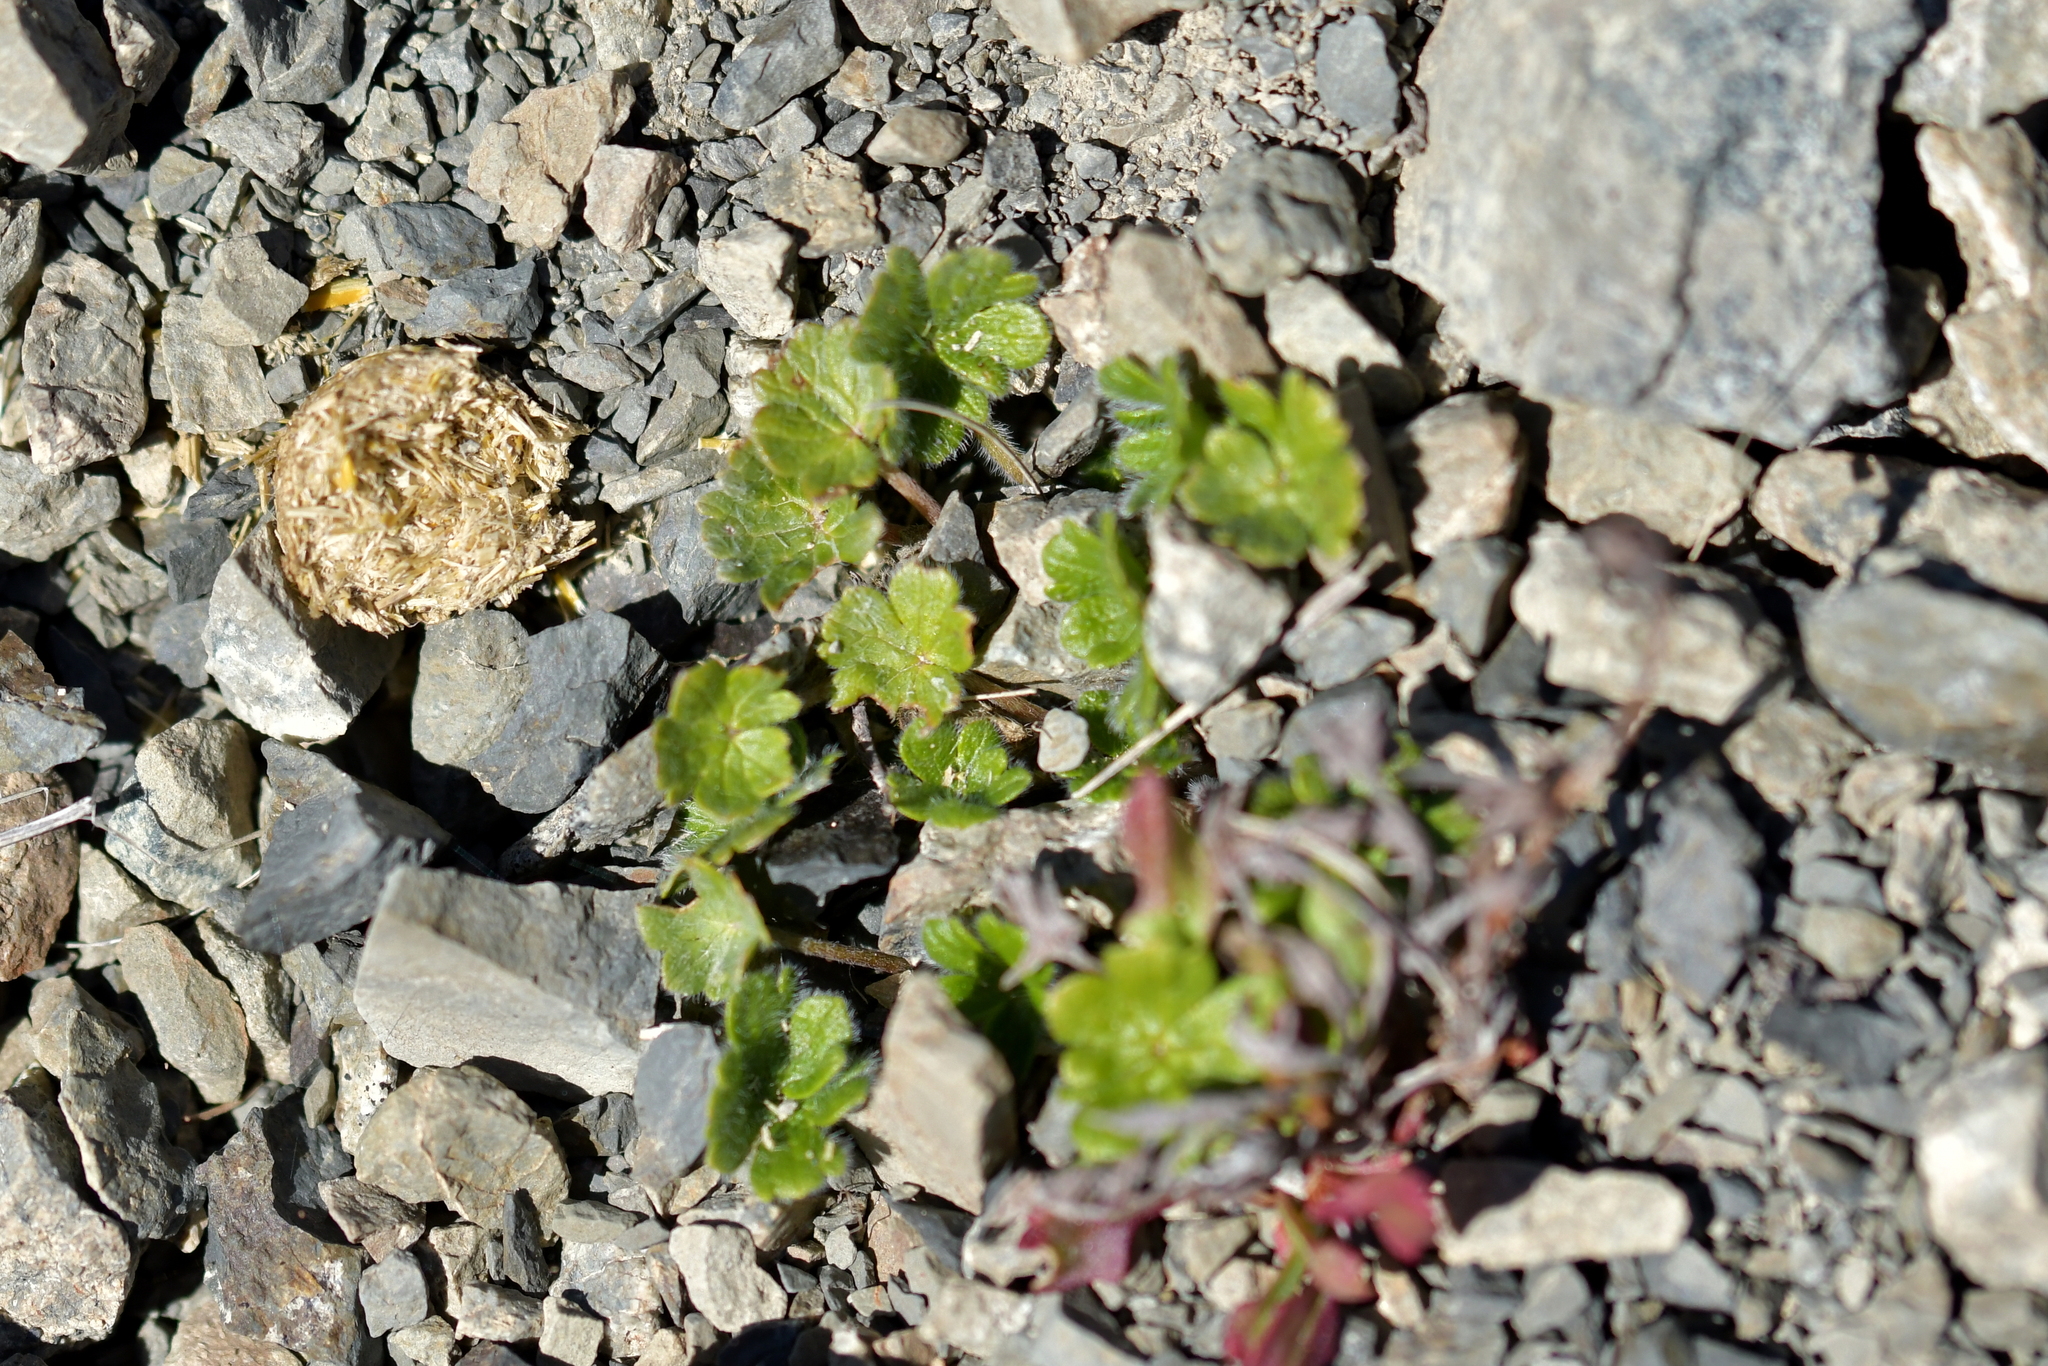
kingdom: Plantae
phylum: Tracheophyta
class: Magnoliopsida
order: Geraniales
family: Geraniaceae
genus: Geranium
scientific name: Geranium brevicaule
